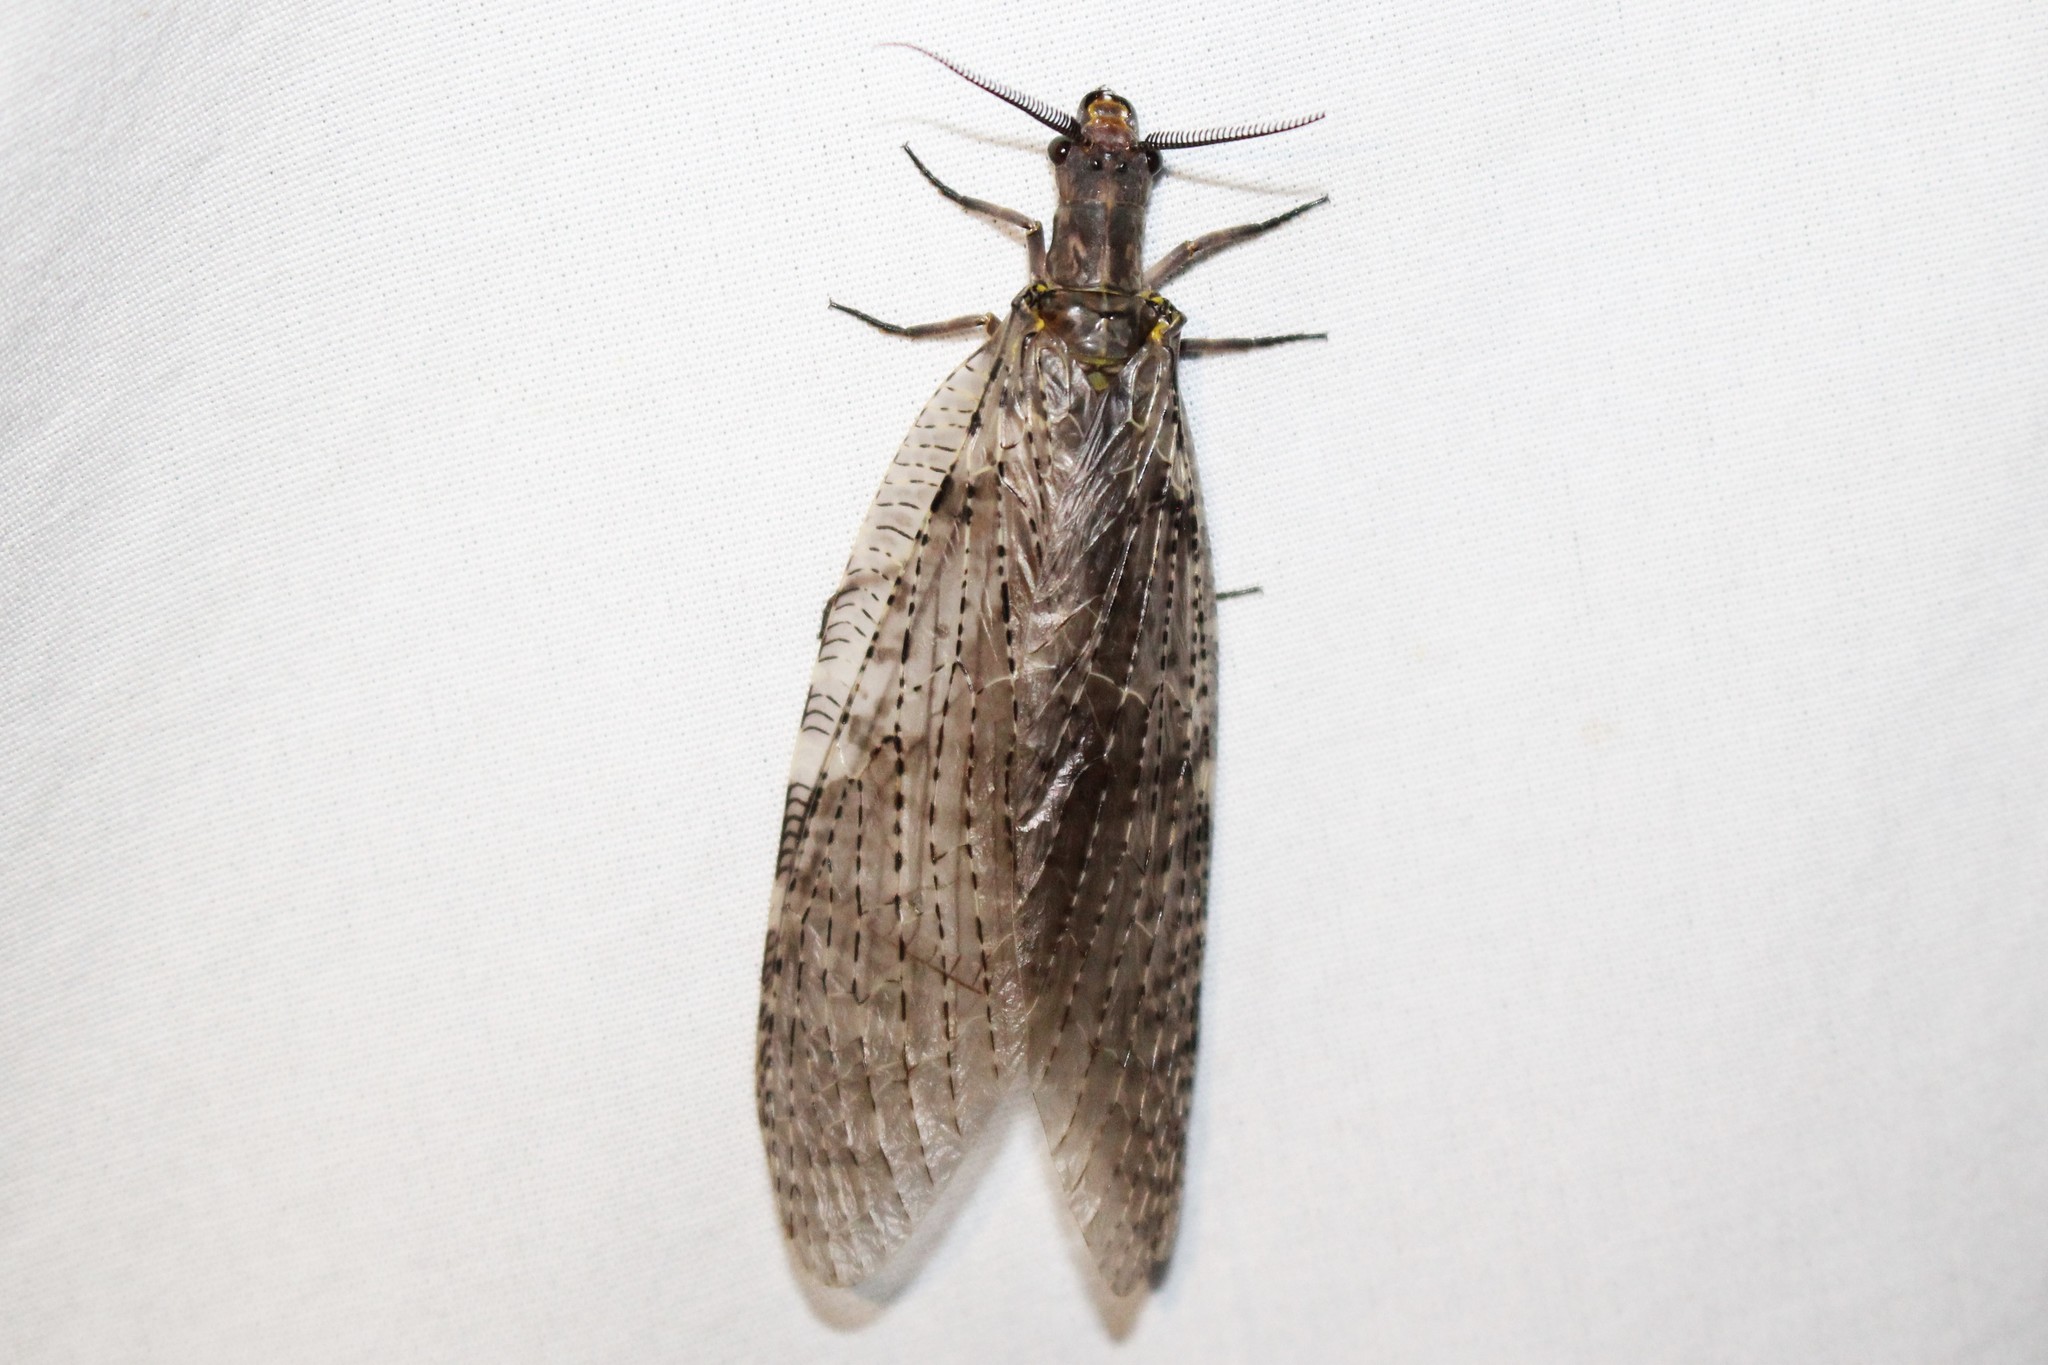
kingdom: Animalia
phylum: Arthropoda
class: Insecta
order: Megaloptera
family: Corydalidae
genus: Chauliodes
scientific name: Chauliodes pectinicornis
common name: Summer fishfly
